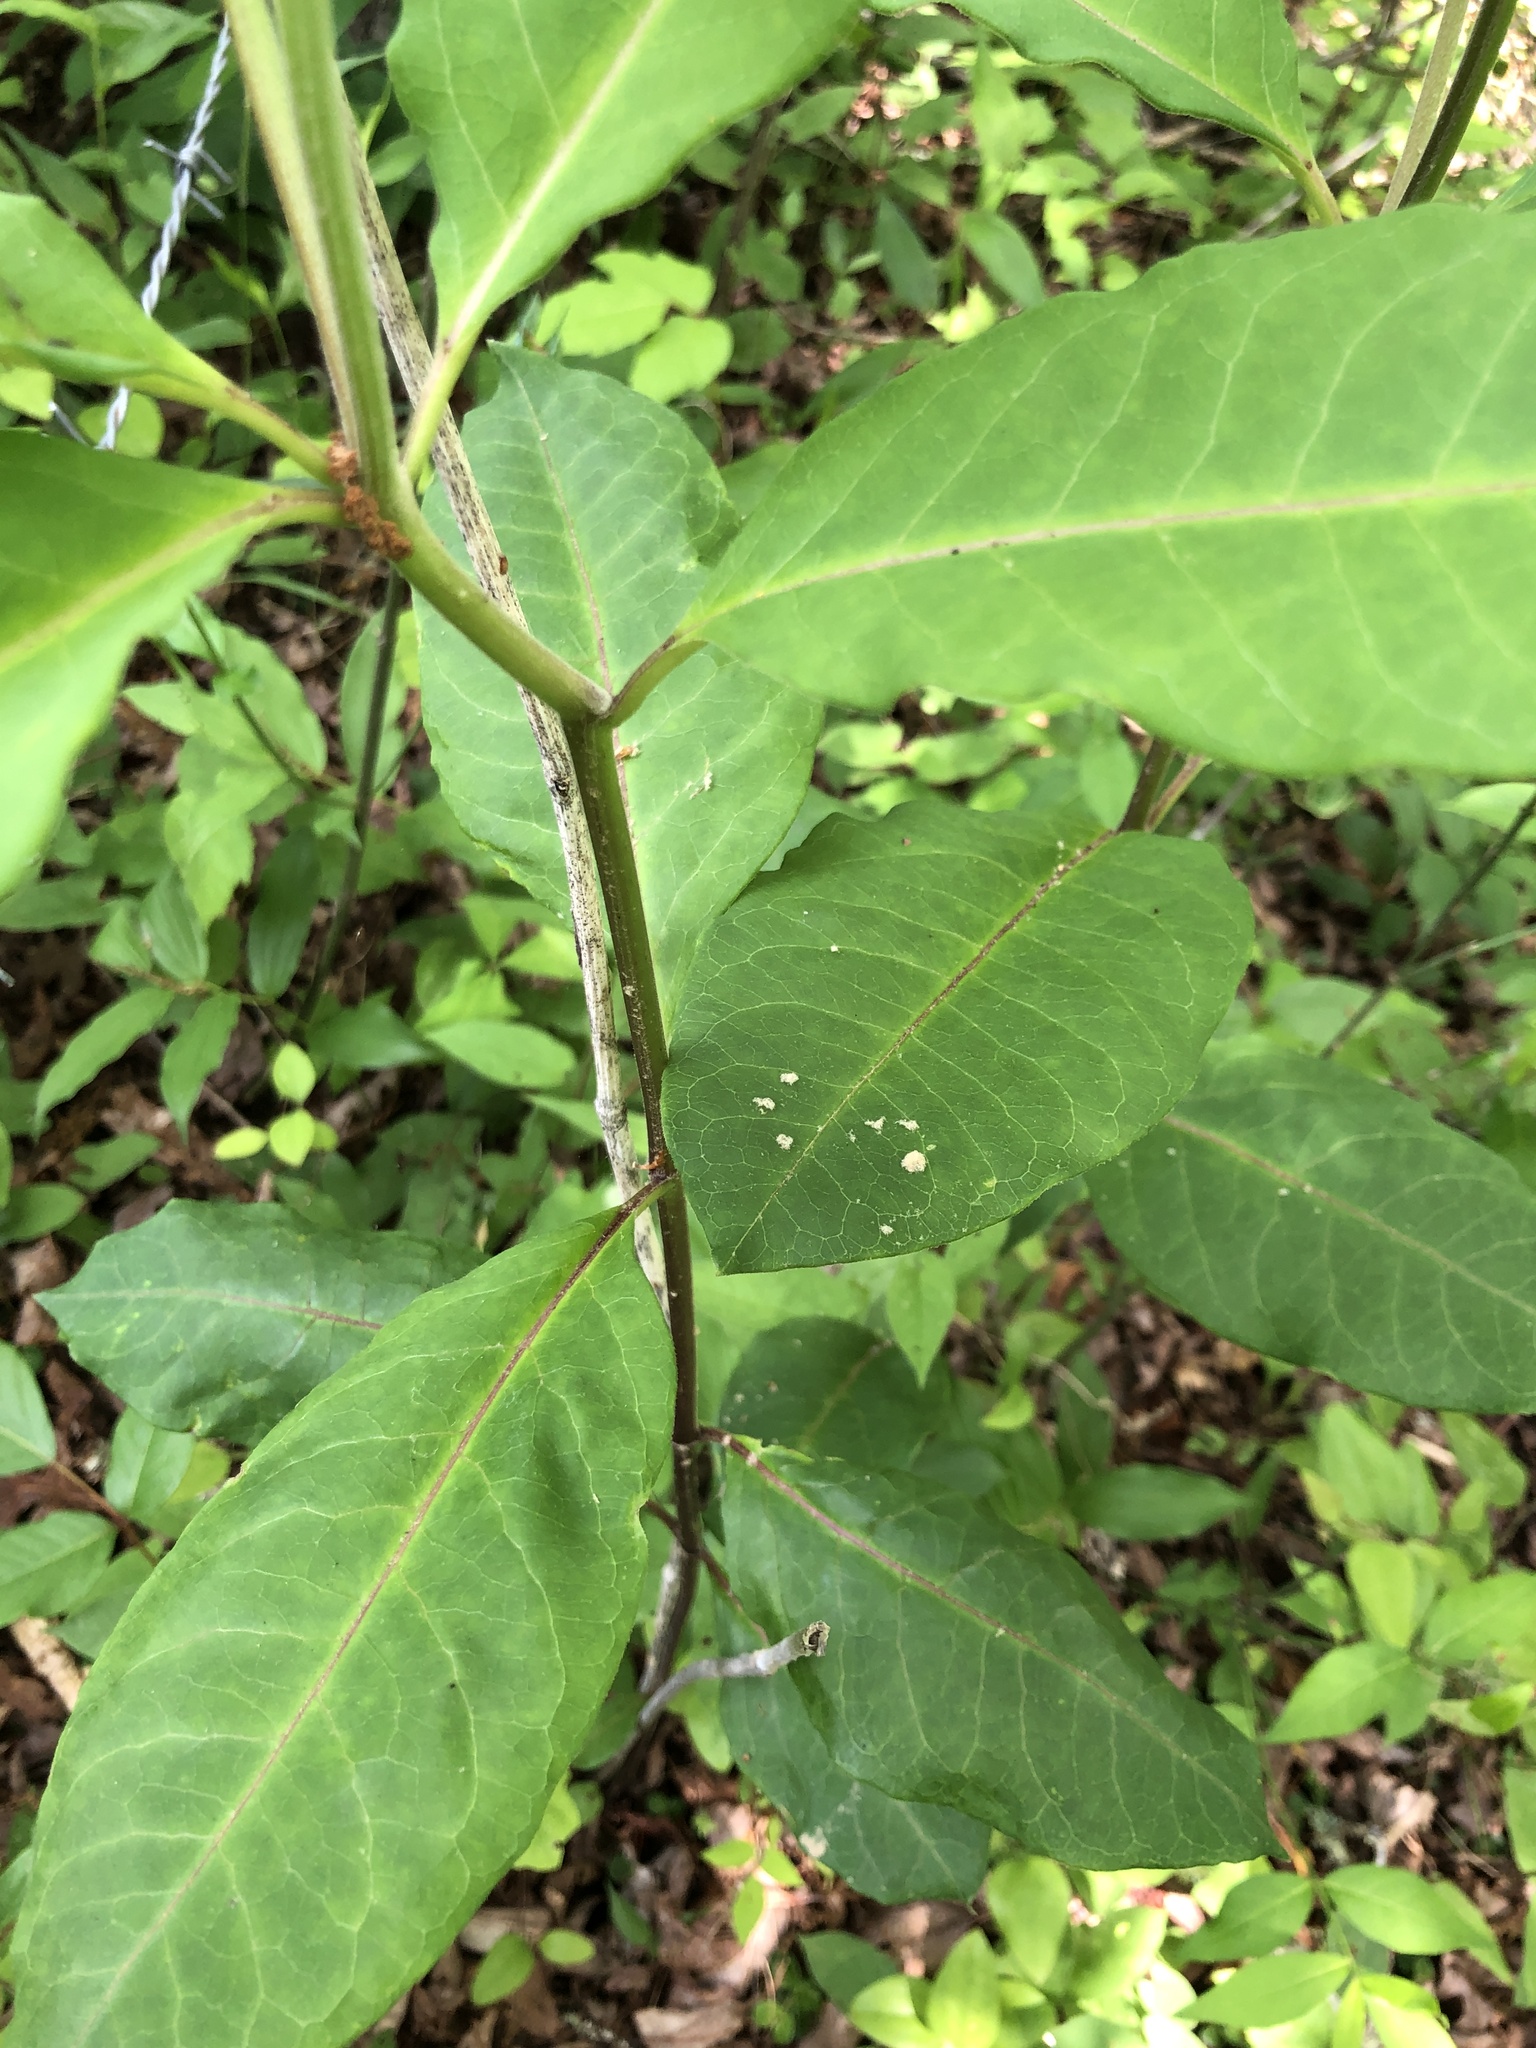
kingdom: Plantae
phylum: Tracheophyta
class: Magnoliopsida
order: Gentianales
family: Apocynaceae
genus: Asclepias
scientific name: Asclepias variegata
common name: Variegated milkweed
